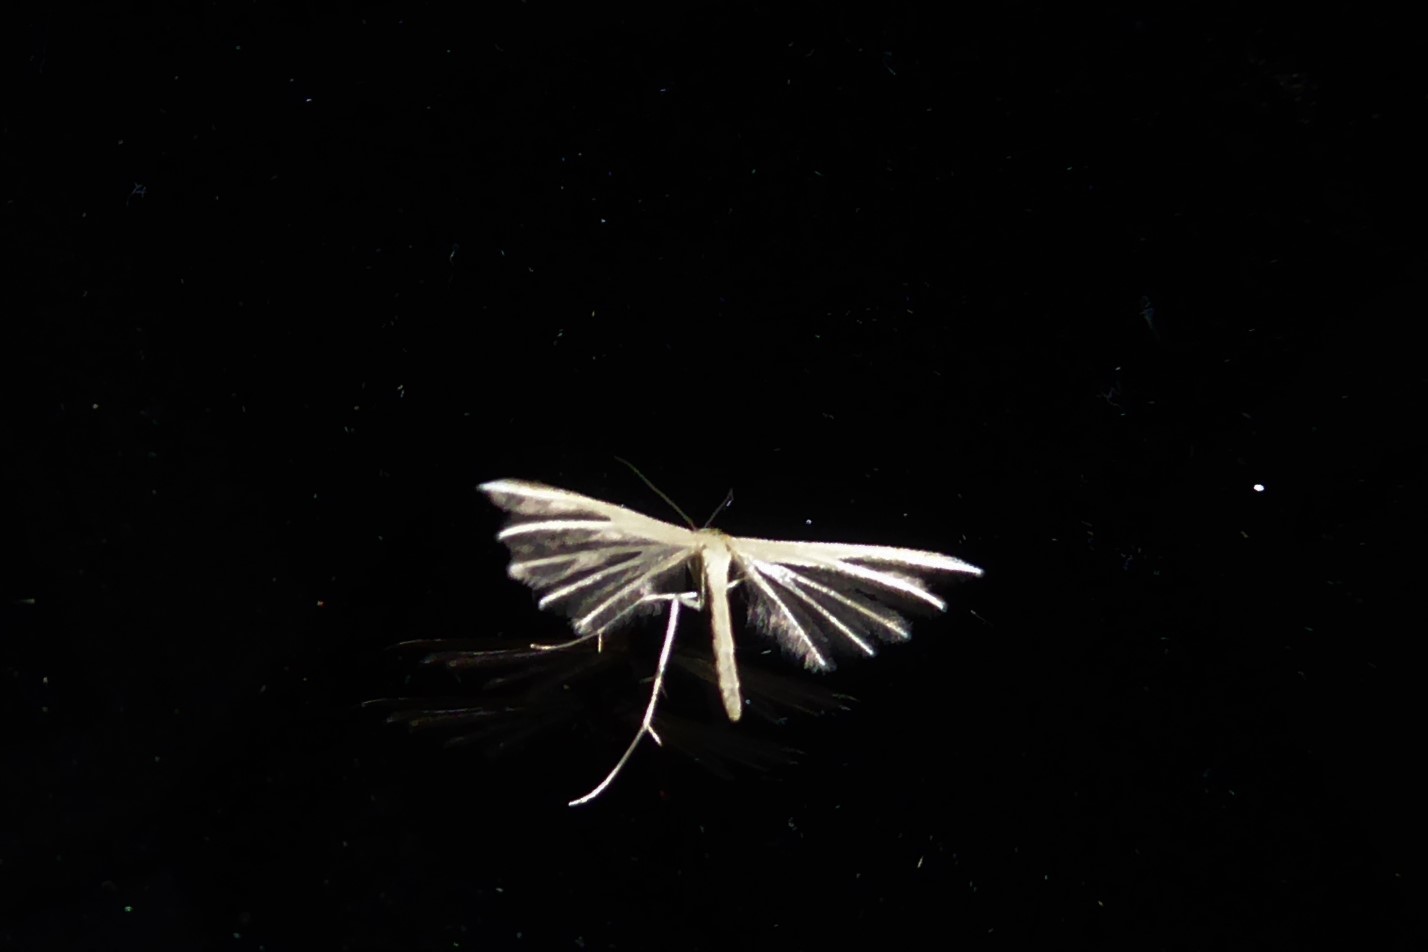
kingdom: Animalia
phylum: Arthropoda
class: Insecta
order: Lepidoptera
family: Pterophoridae
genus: Pterophorus
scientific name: Pterophorus innotatalis
